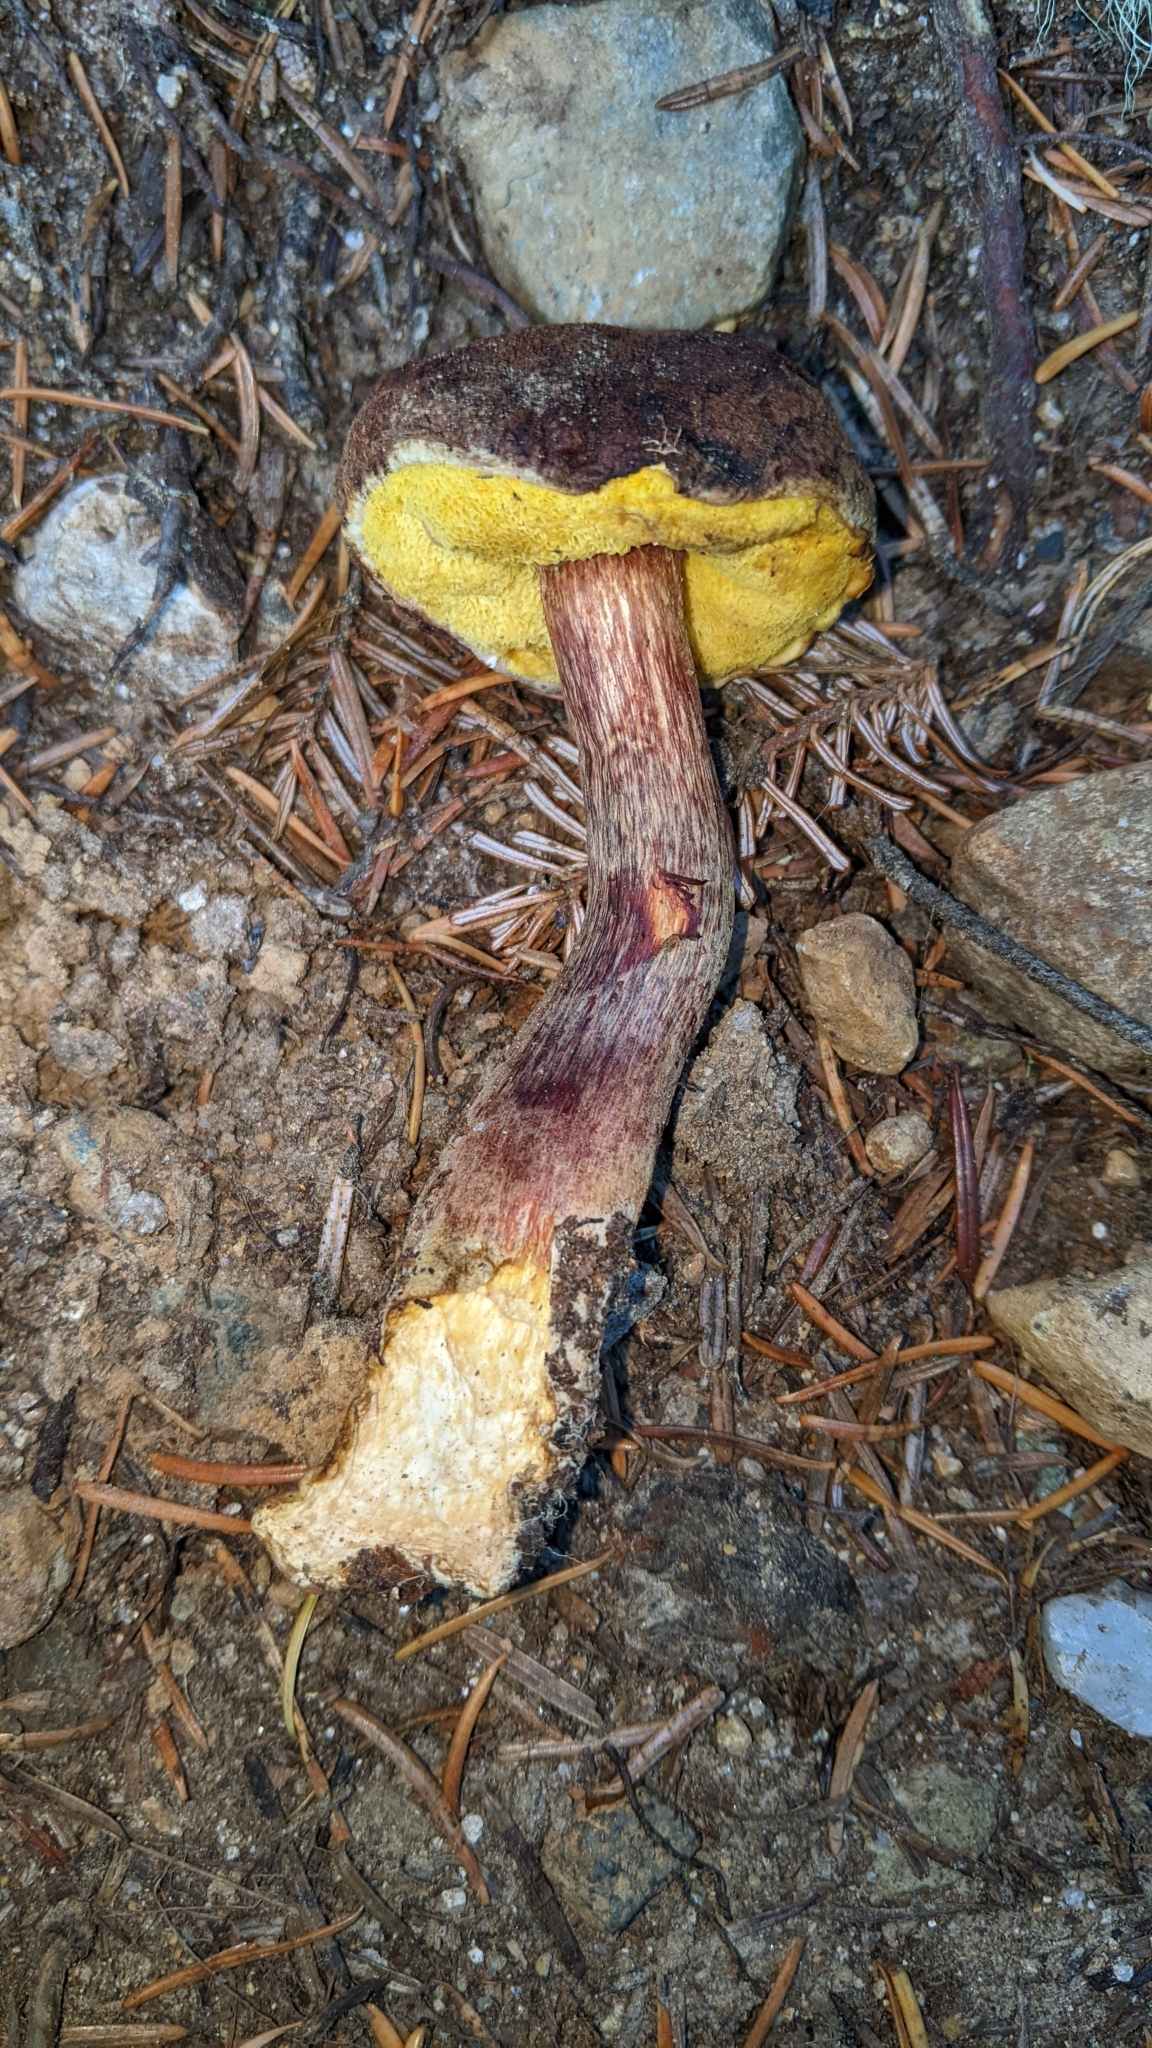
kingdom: Fungi
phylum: Basidiomycota
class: Agaricomycetes
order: Boletales
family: Boletaceae
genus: Aureoboletus
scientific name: Aureoboletus mirabilis
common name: Admirable bolete
